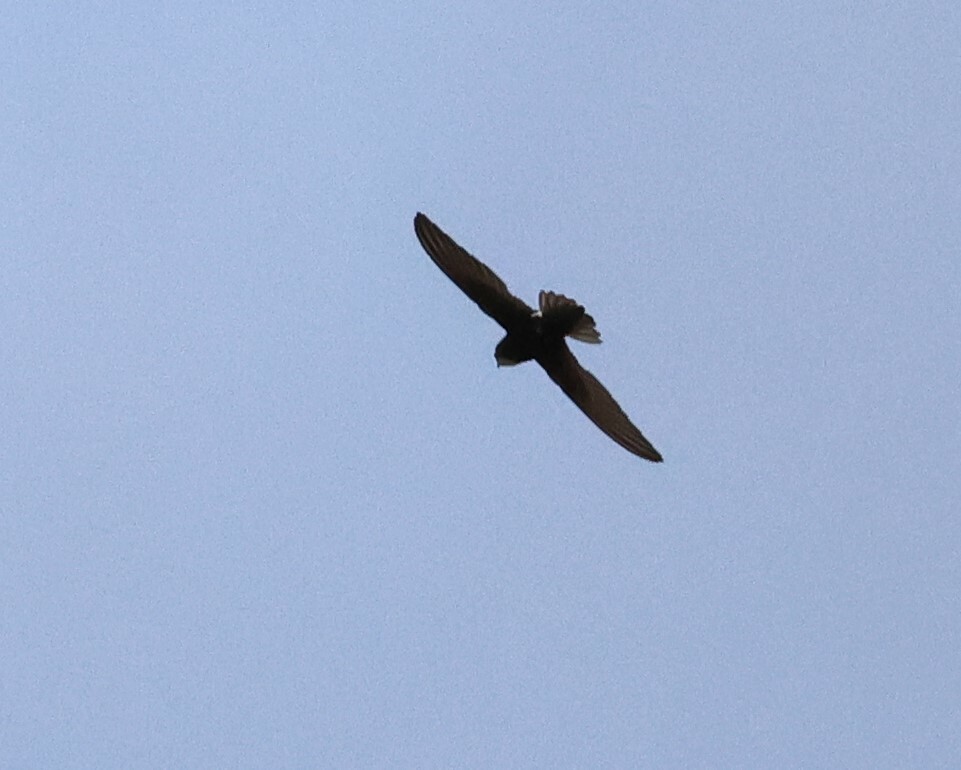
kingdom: Animalia
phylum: Chordata
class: Aves
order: Apodiformes
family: Apodidae
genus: Apus
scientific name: Apus affinis
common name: Little swift
